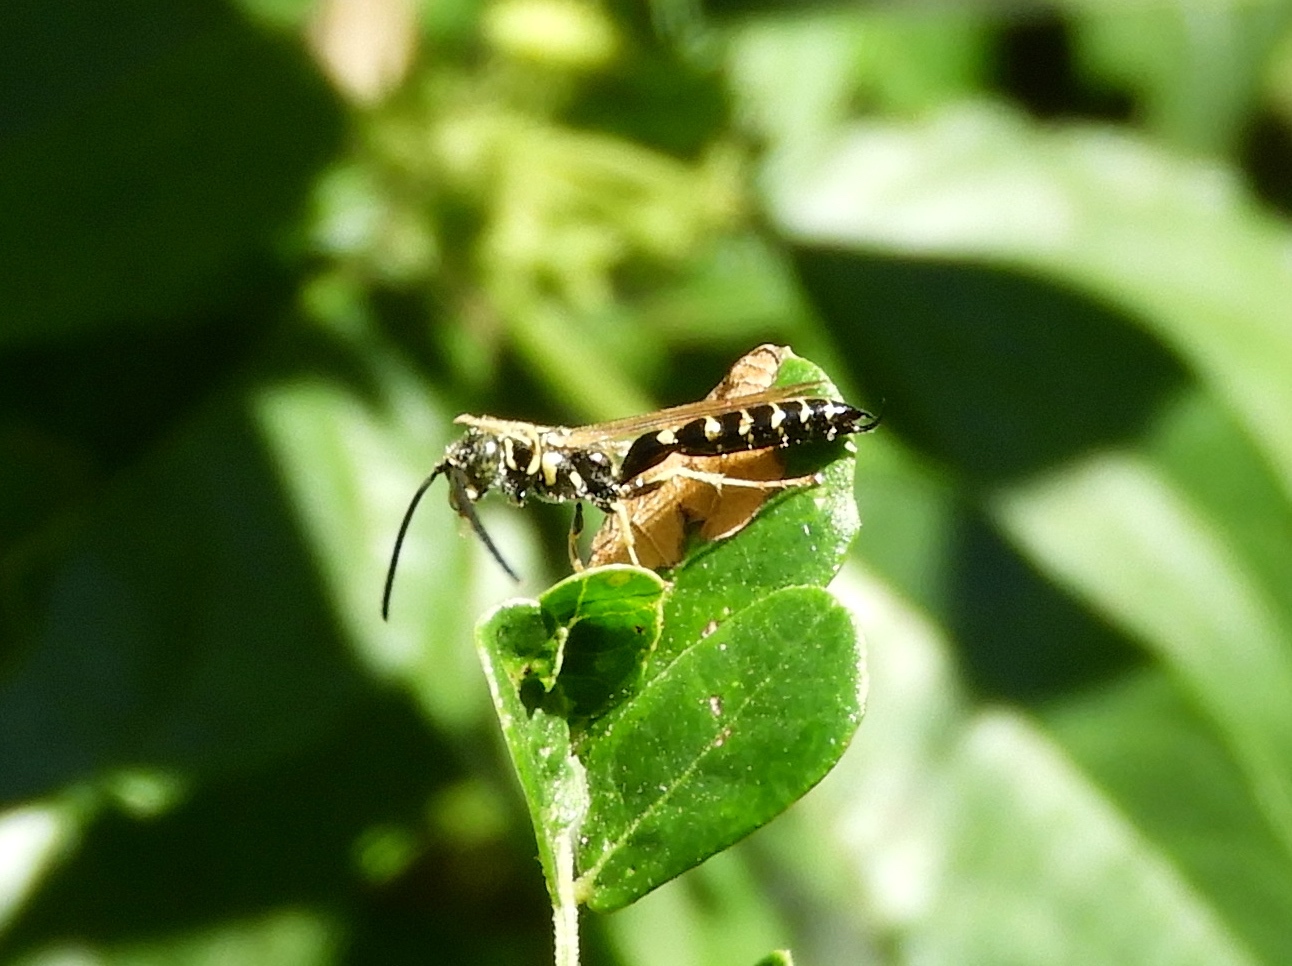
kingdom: Animalia
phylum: Arthropoda
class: Insecta
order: Hymenoptera
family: Tiphiidae
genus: Myzinum
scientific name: Myzinum
